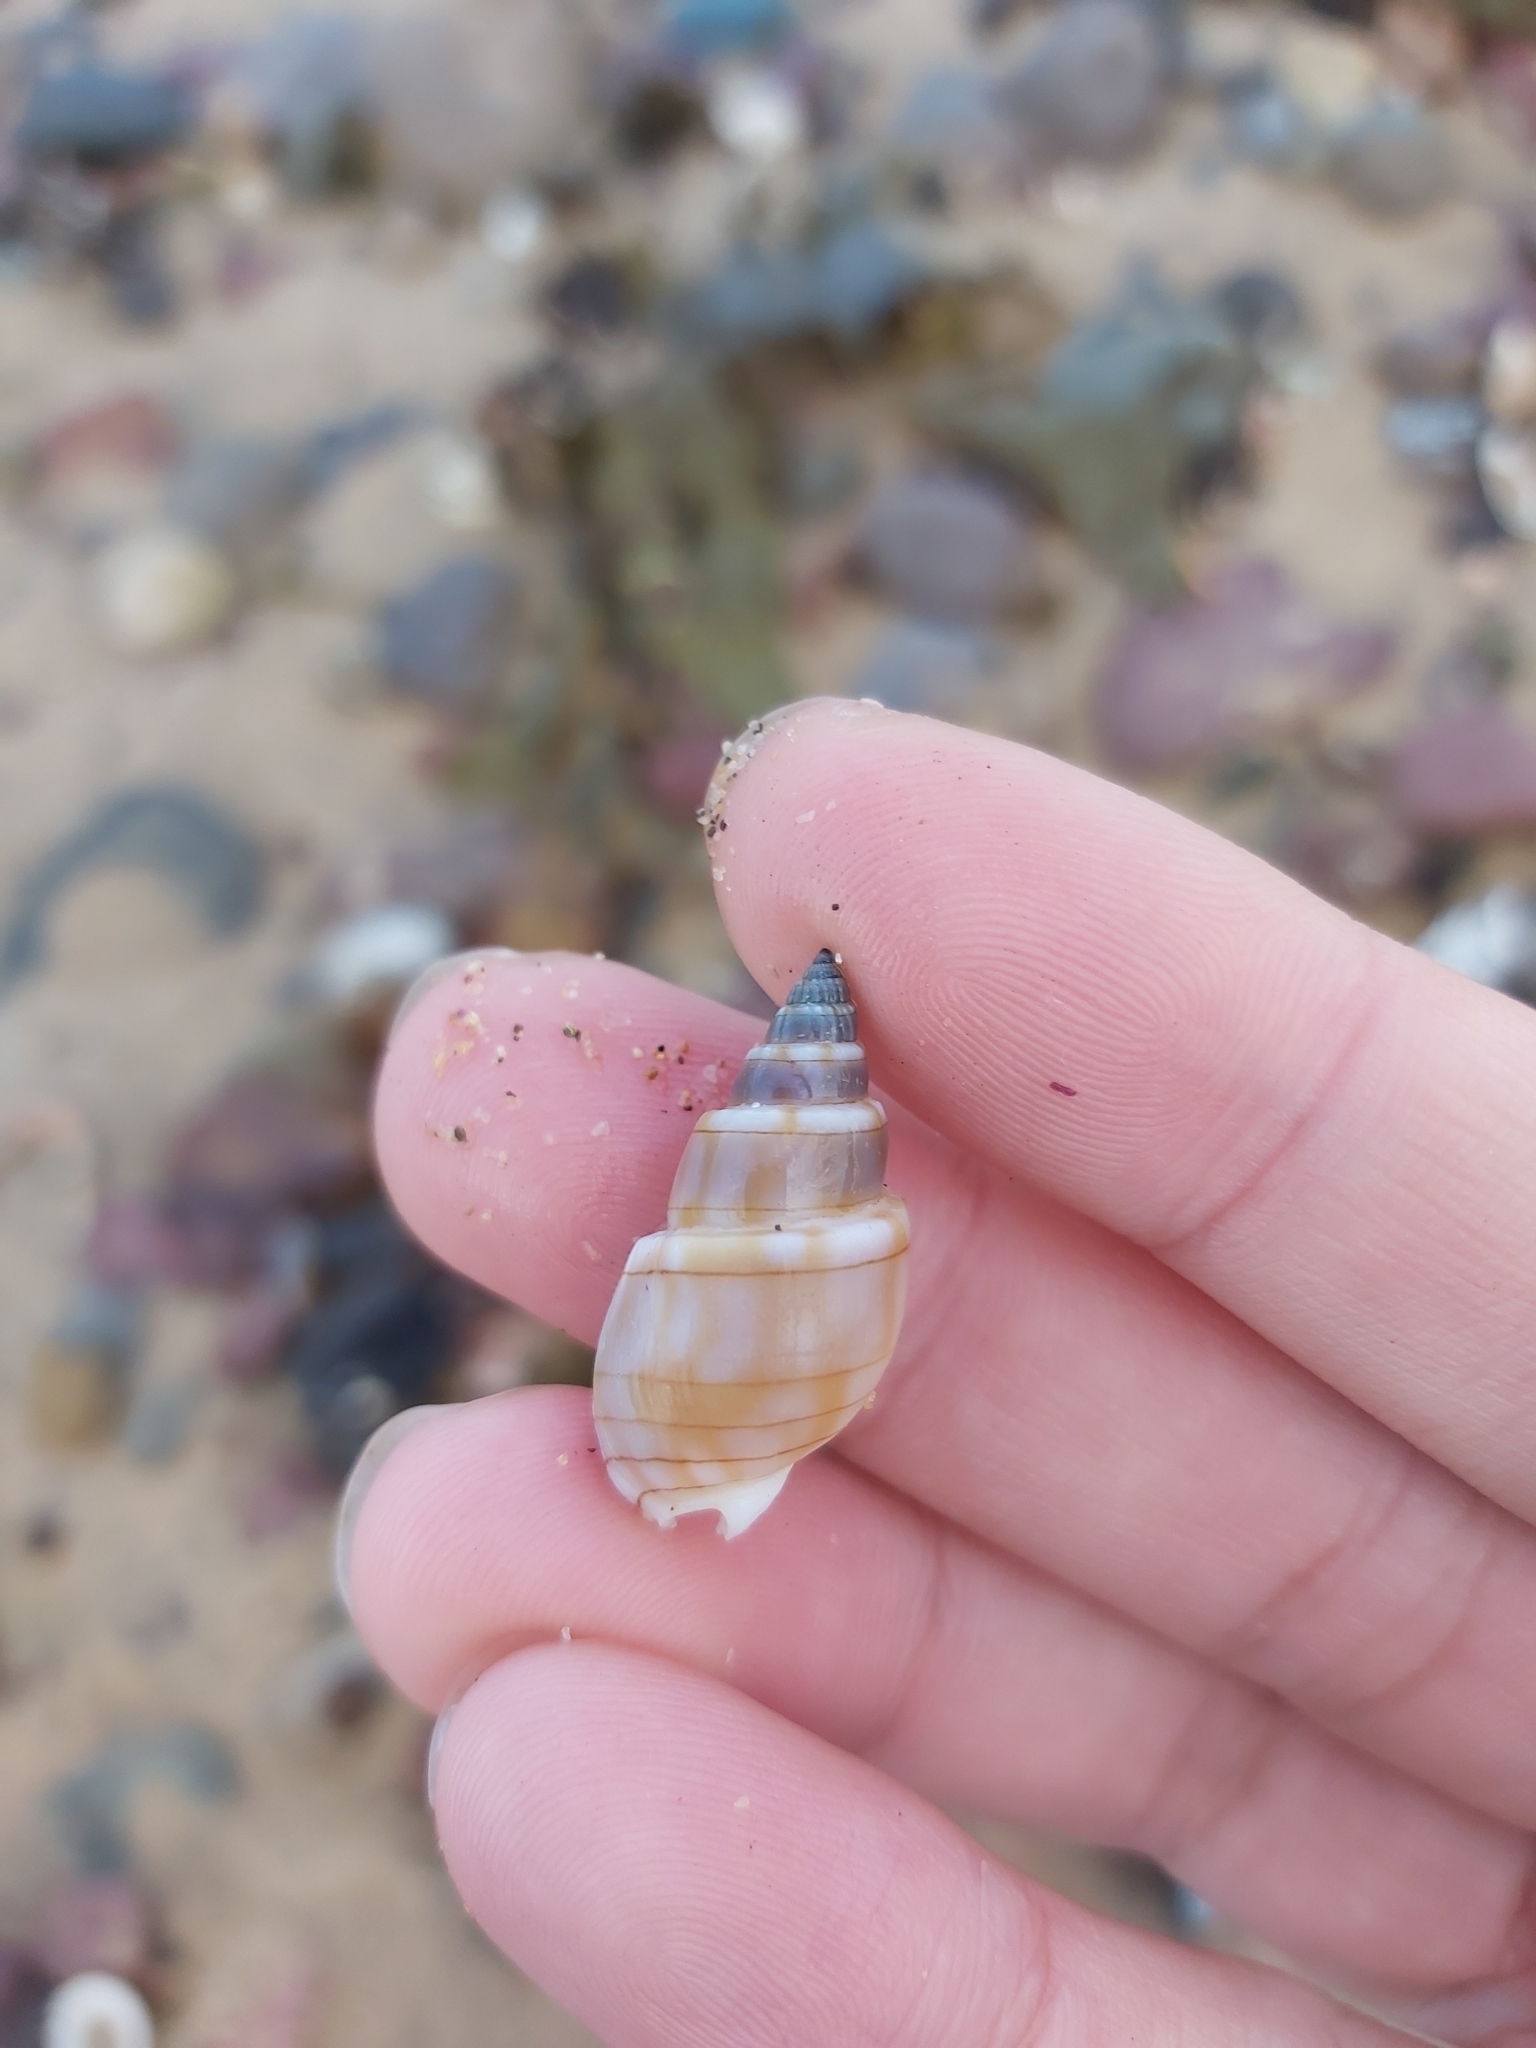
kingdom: Animalia
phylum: Mollusca
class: Gastropoda
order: Neogastropoda
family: Nassariidae
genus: Nassarius
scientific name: Nassarius particeps
